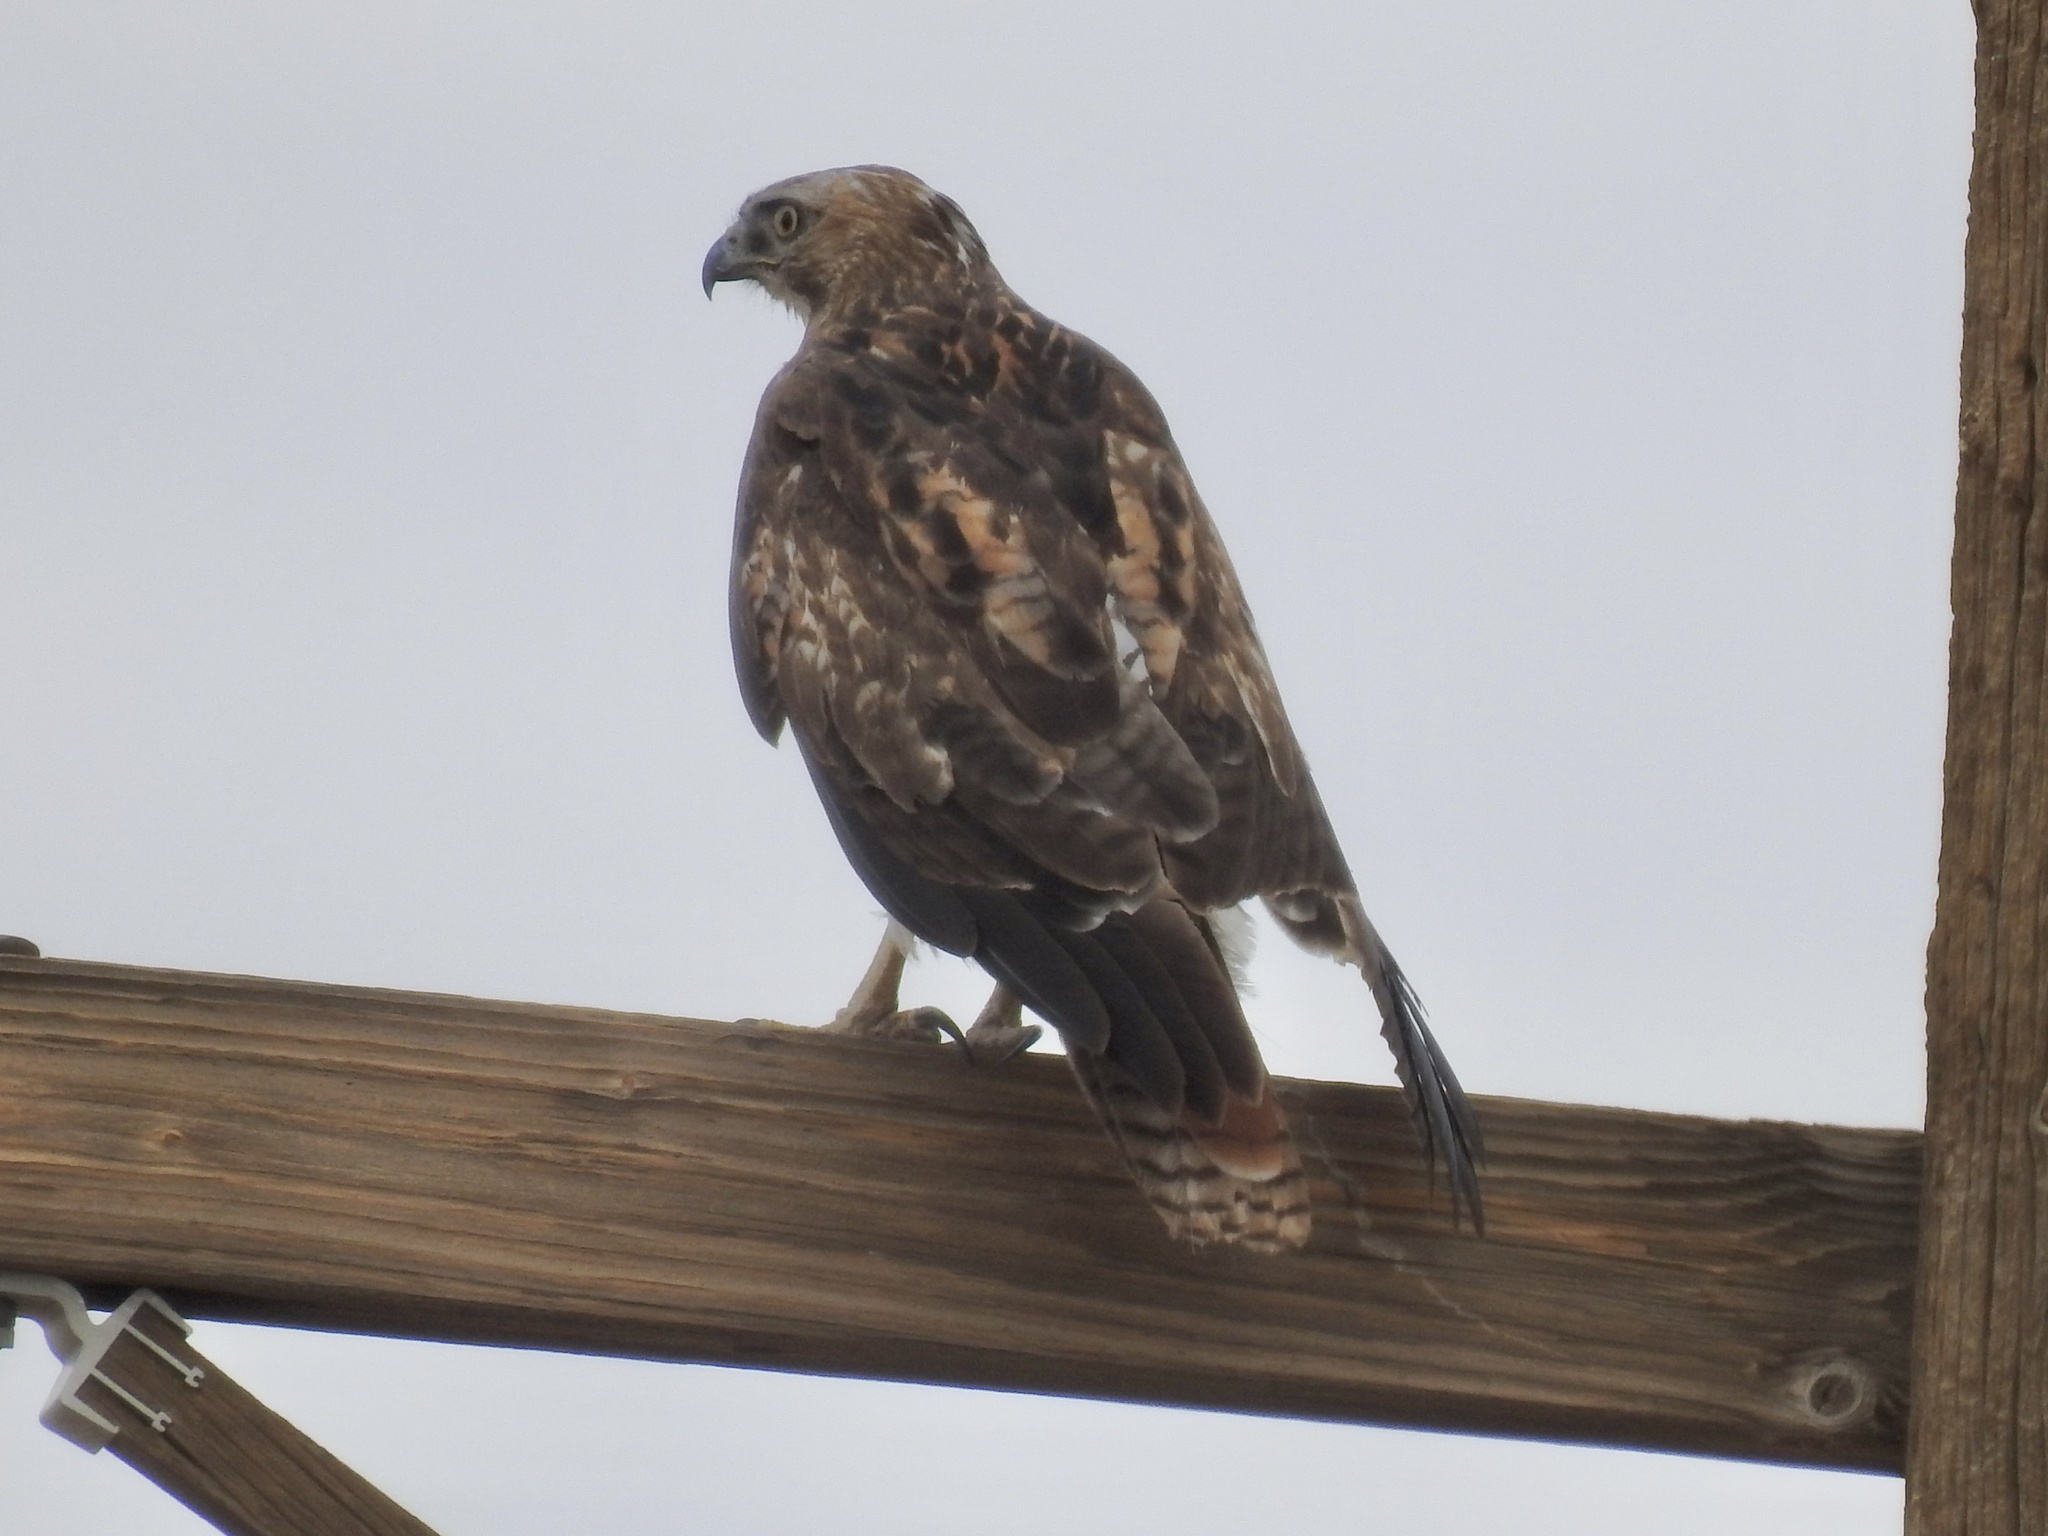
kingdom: Animalia
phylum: Chordata
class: Aves
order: Accipitriformes
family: Accipitridae
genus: Buteo
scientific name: Buteo jamaicensis
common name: Red-tailed hawk
